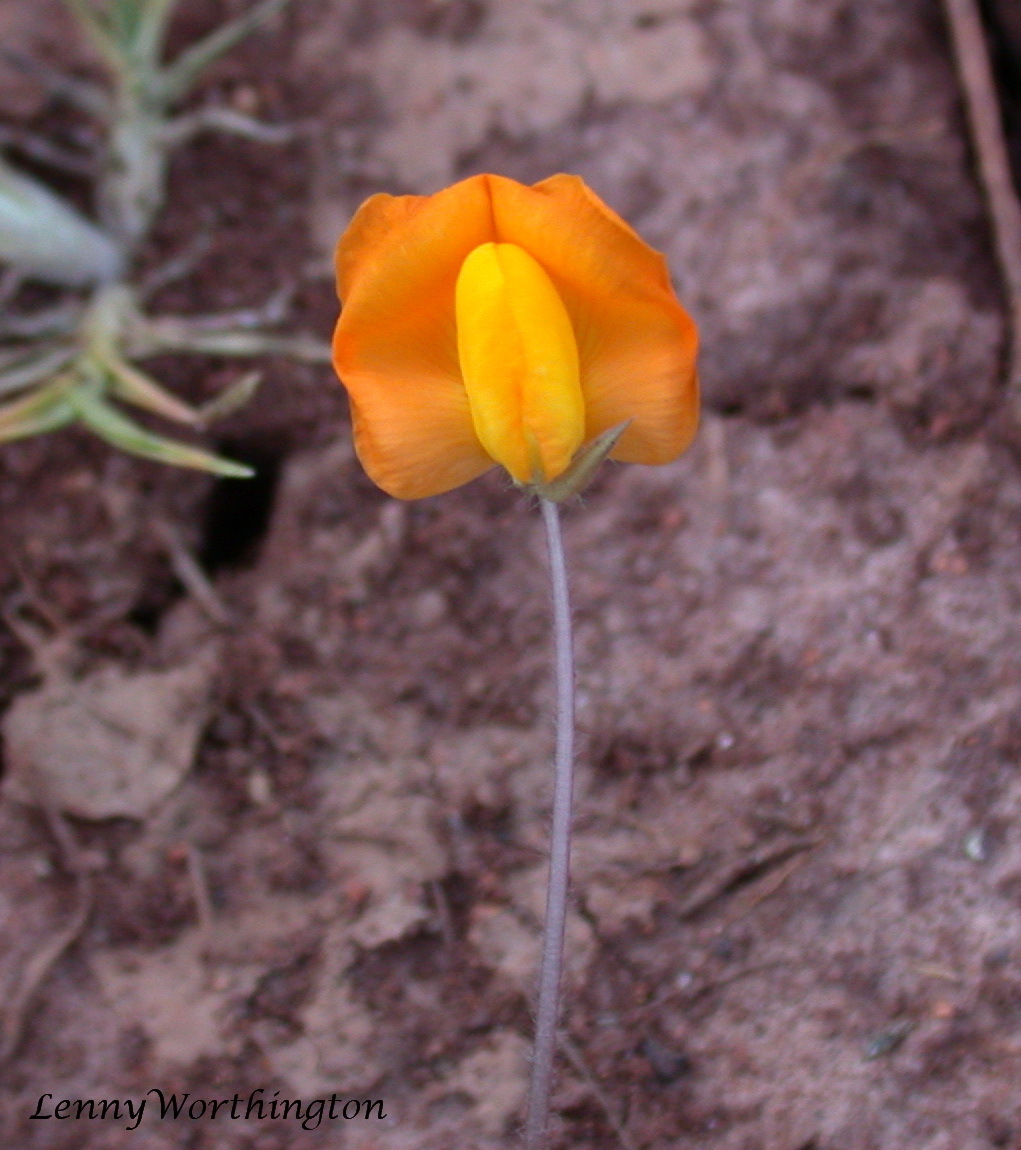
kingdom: Plantae
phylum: Tracheophyta
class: Magnoliopsida
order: Fabales
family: Fabaceae
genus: Arachis
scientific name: Arachis pintoi
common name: Pinto peanut
